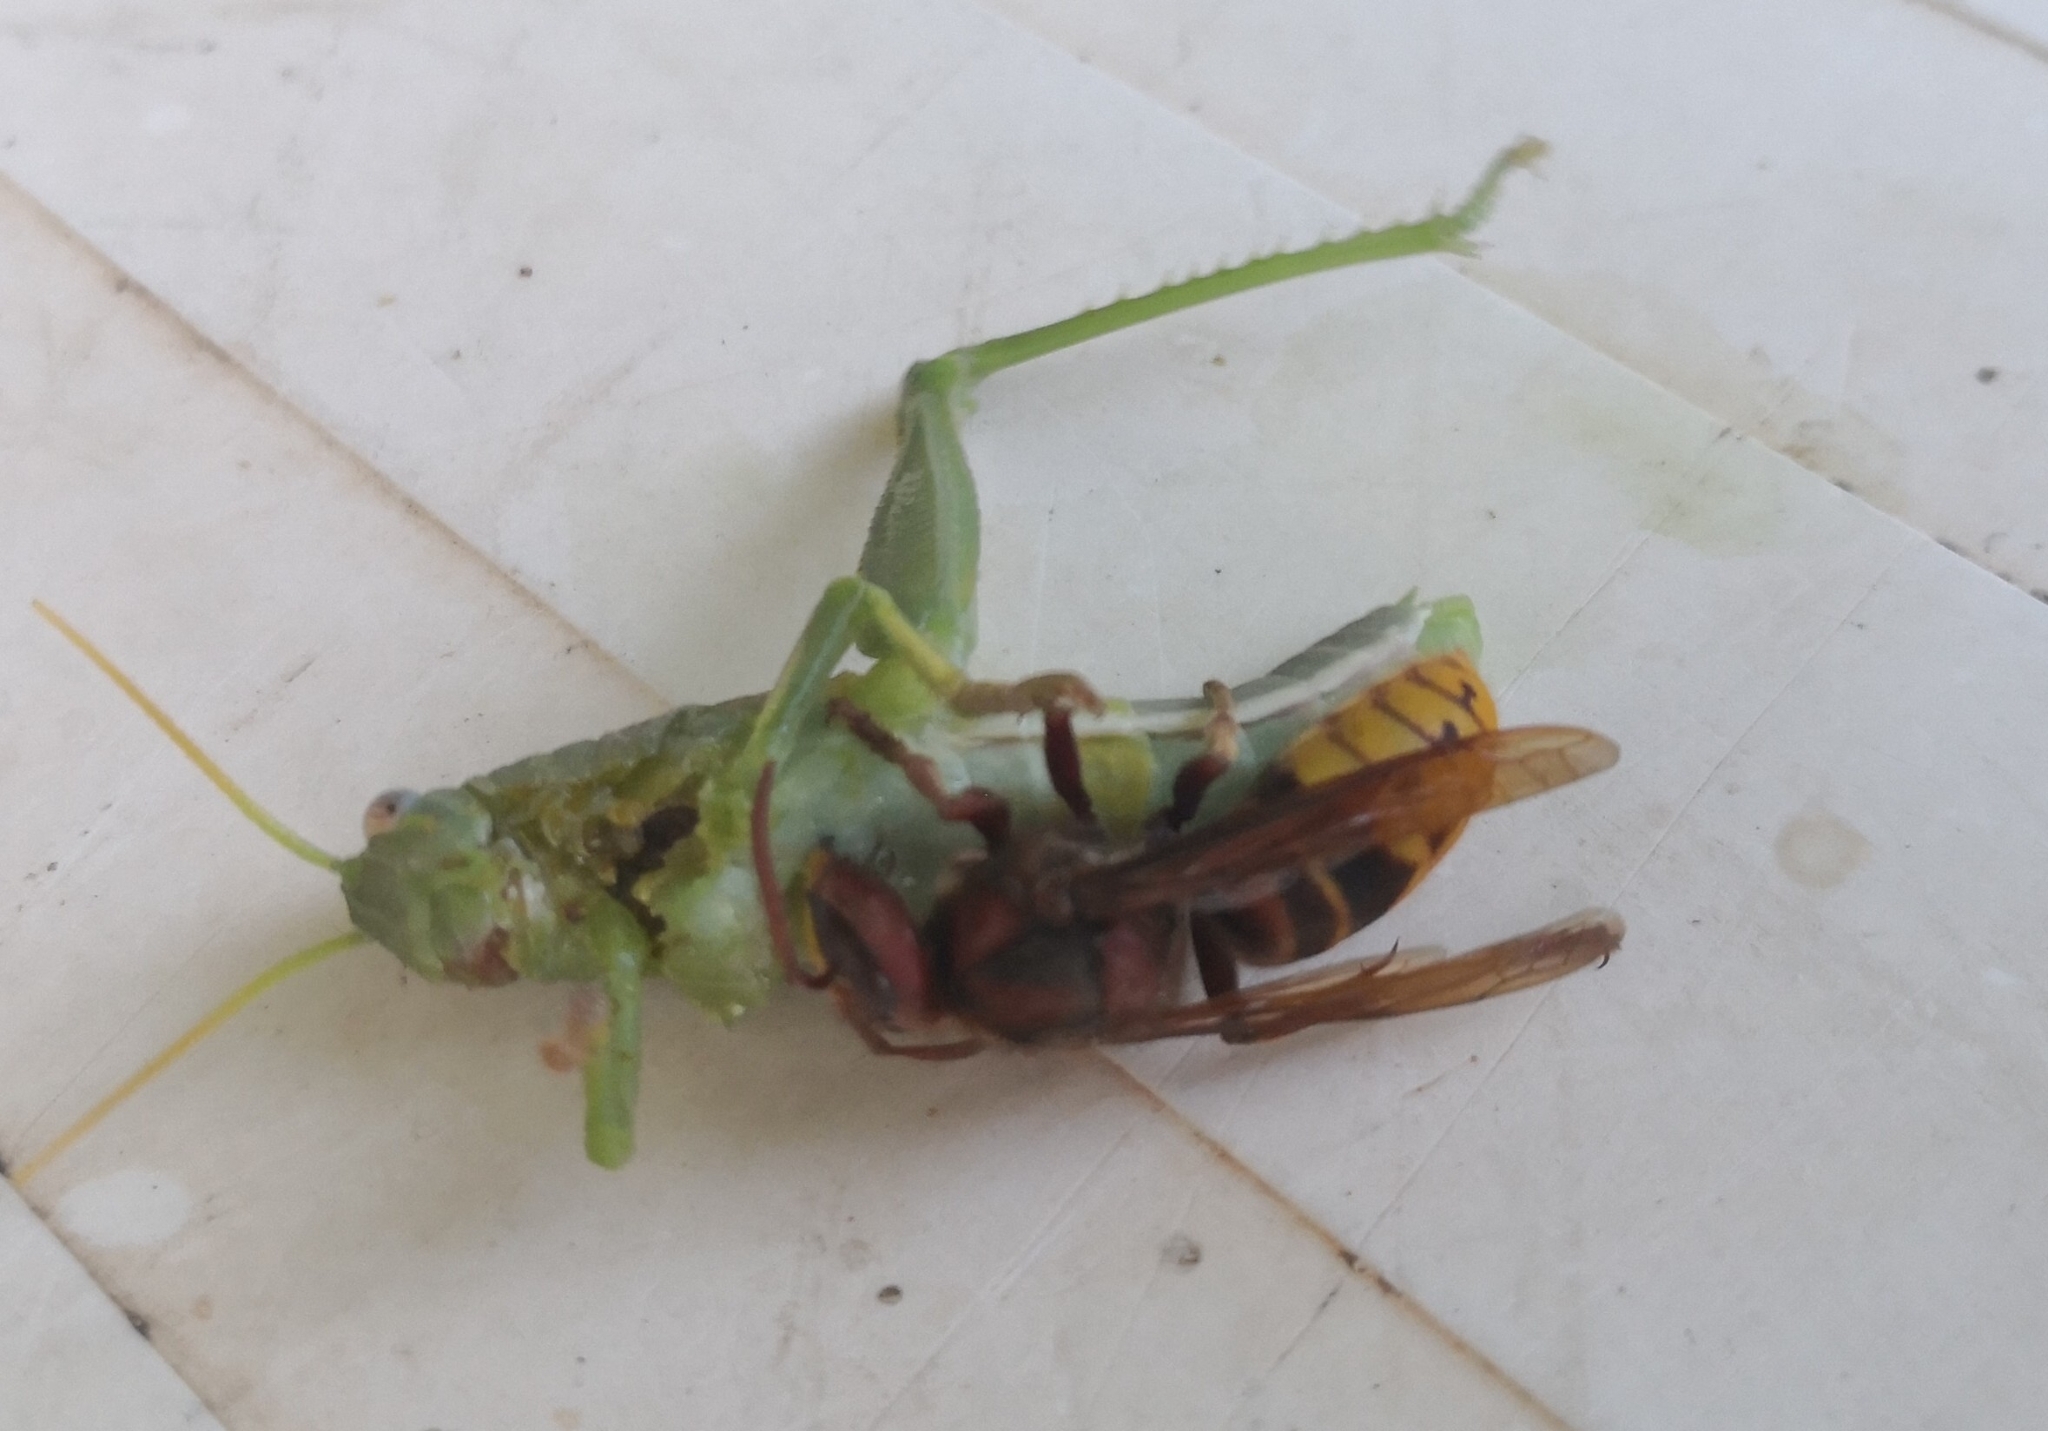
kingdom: Animalia
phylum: Arthropoda
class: Insecta
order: Hymenoptera
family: Vespidae
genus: Vespa
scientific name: Vespa crabro
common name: Hornet
